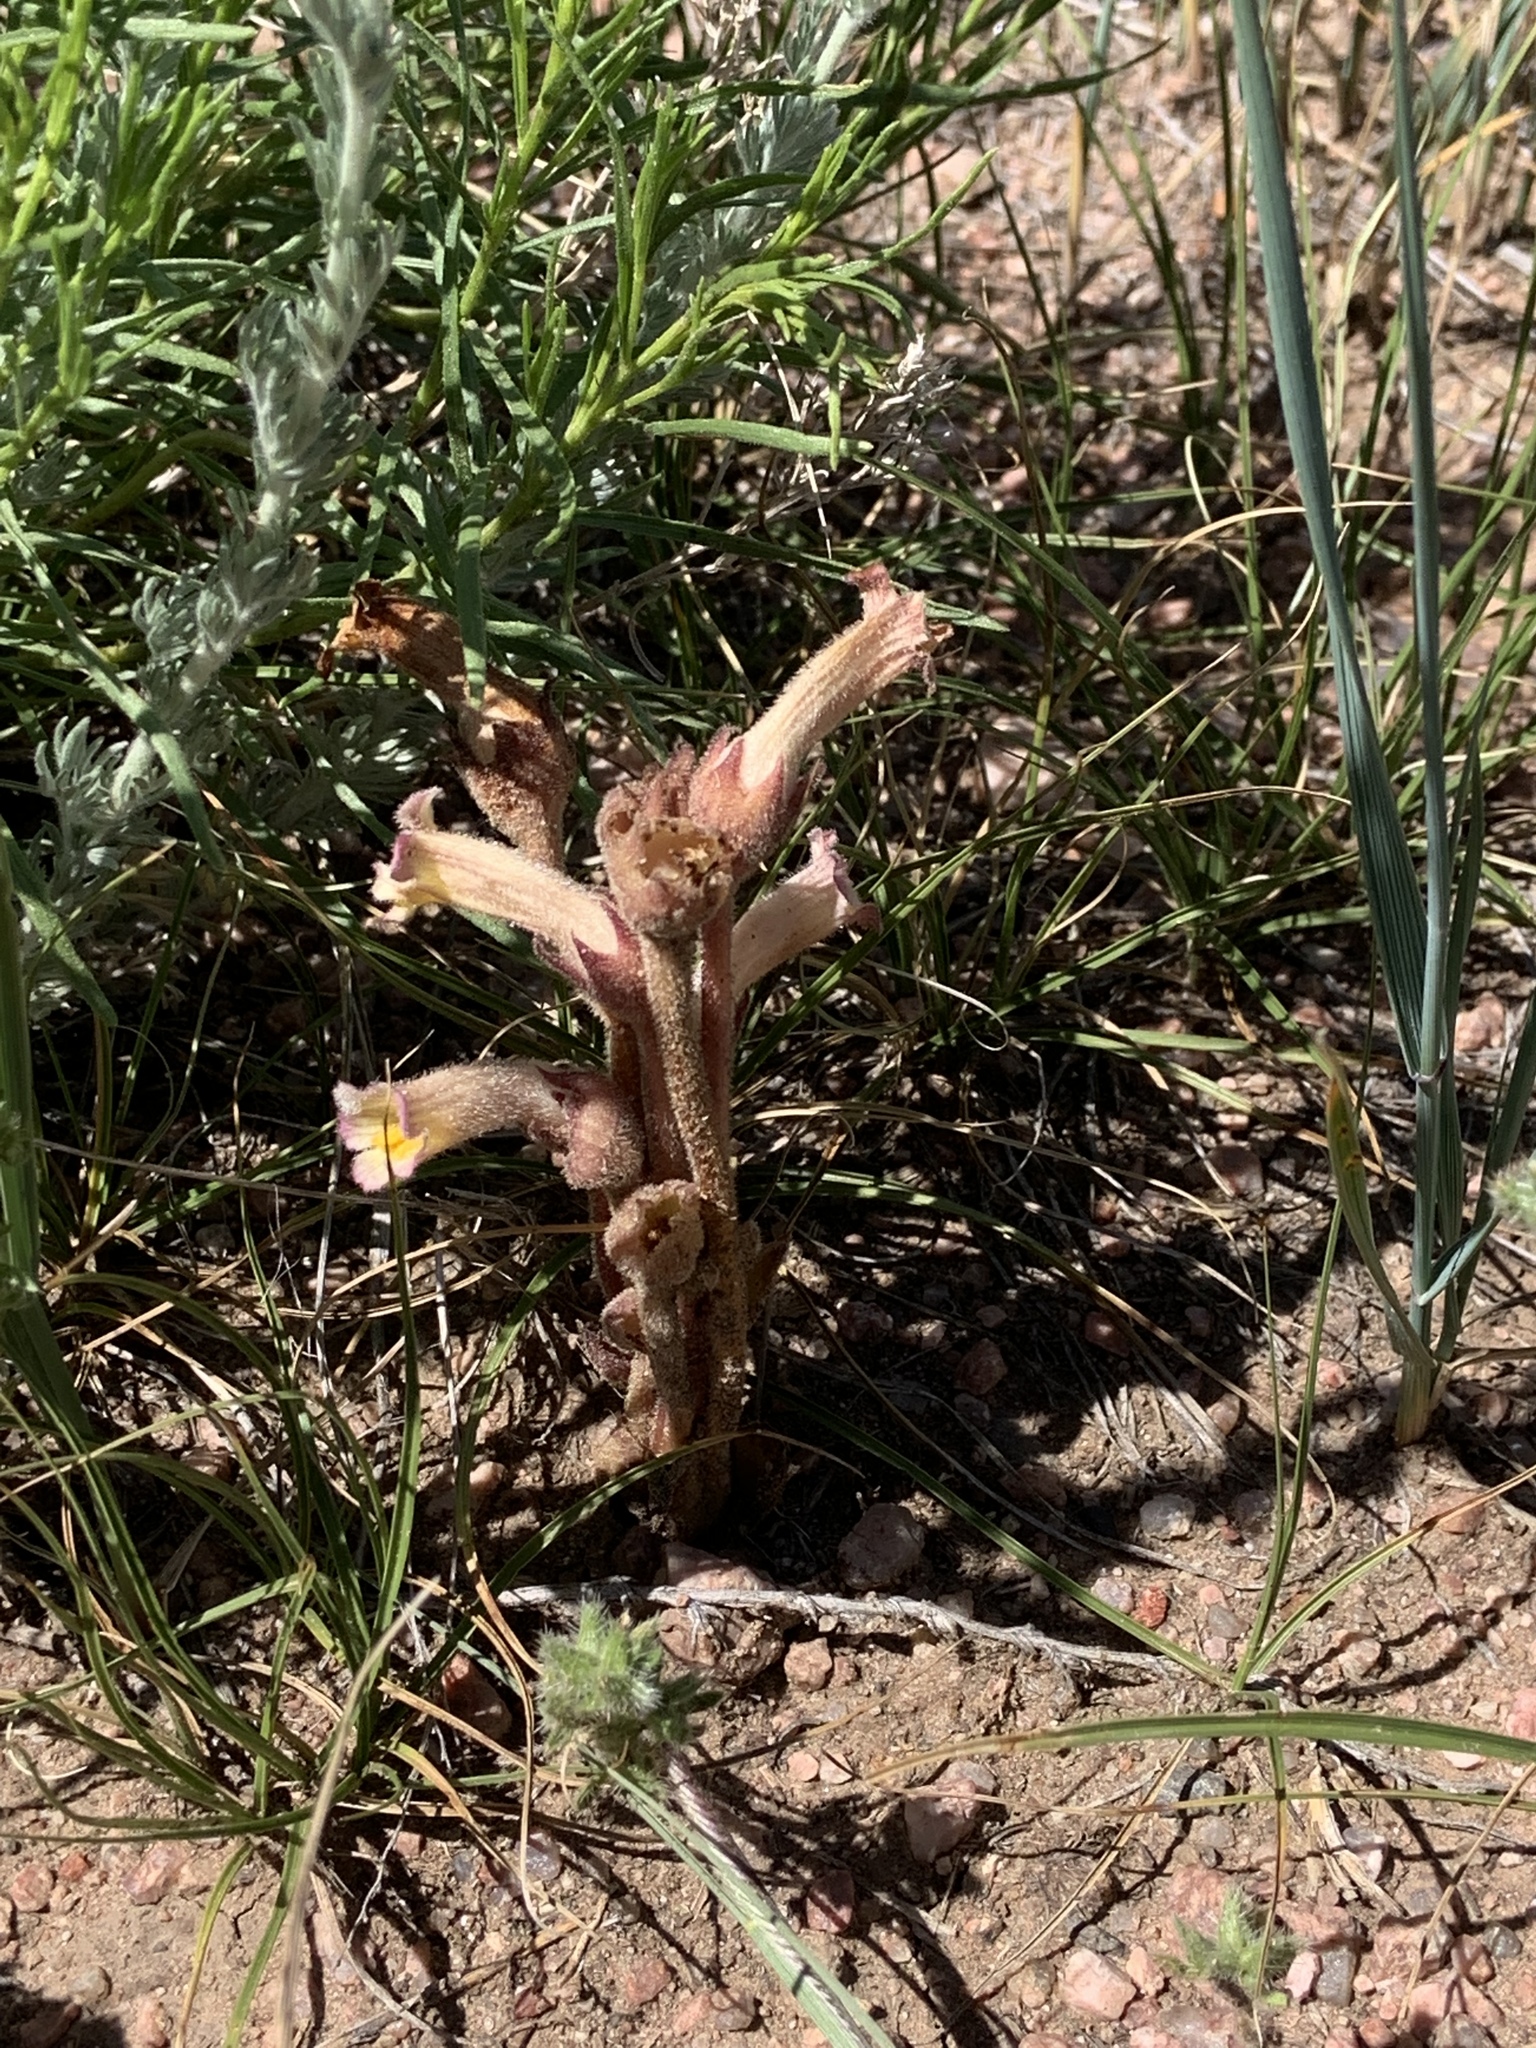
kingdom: Plantae
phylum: Tracheophyta
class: Magnoliopsida
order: Lamiales
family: Orobanchaceae
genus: Aphyllon
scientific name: Aphyllon fasciculatum
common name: Clustered broomrape
